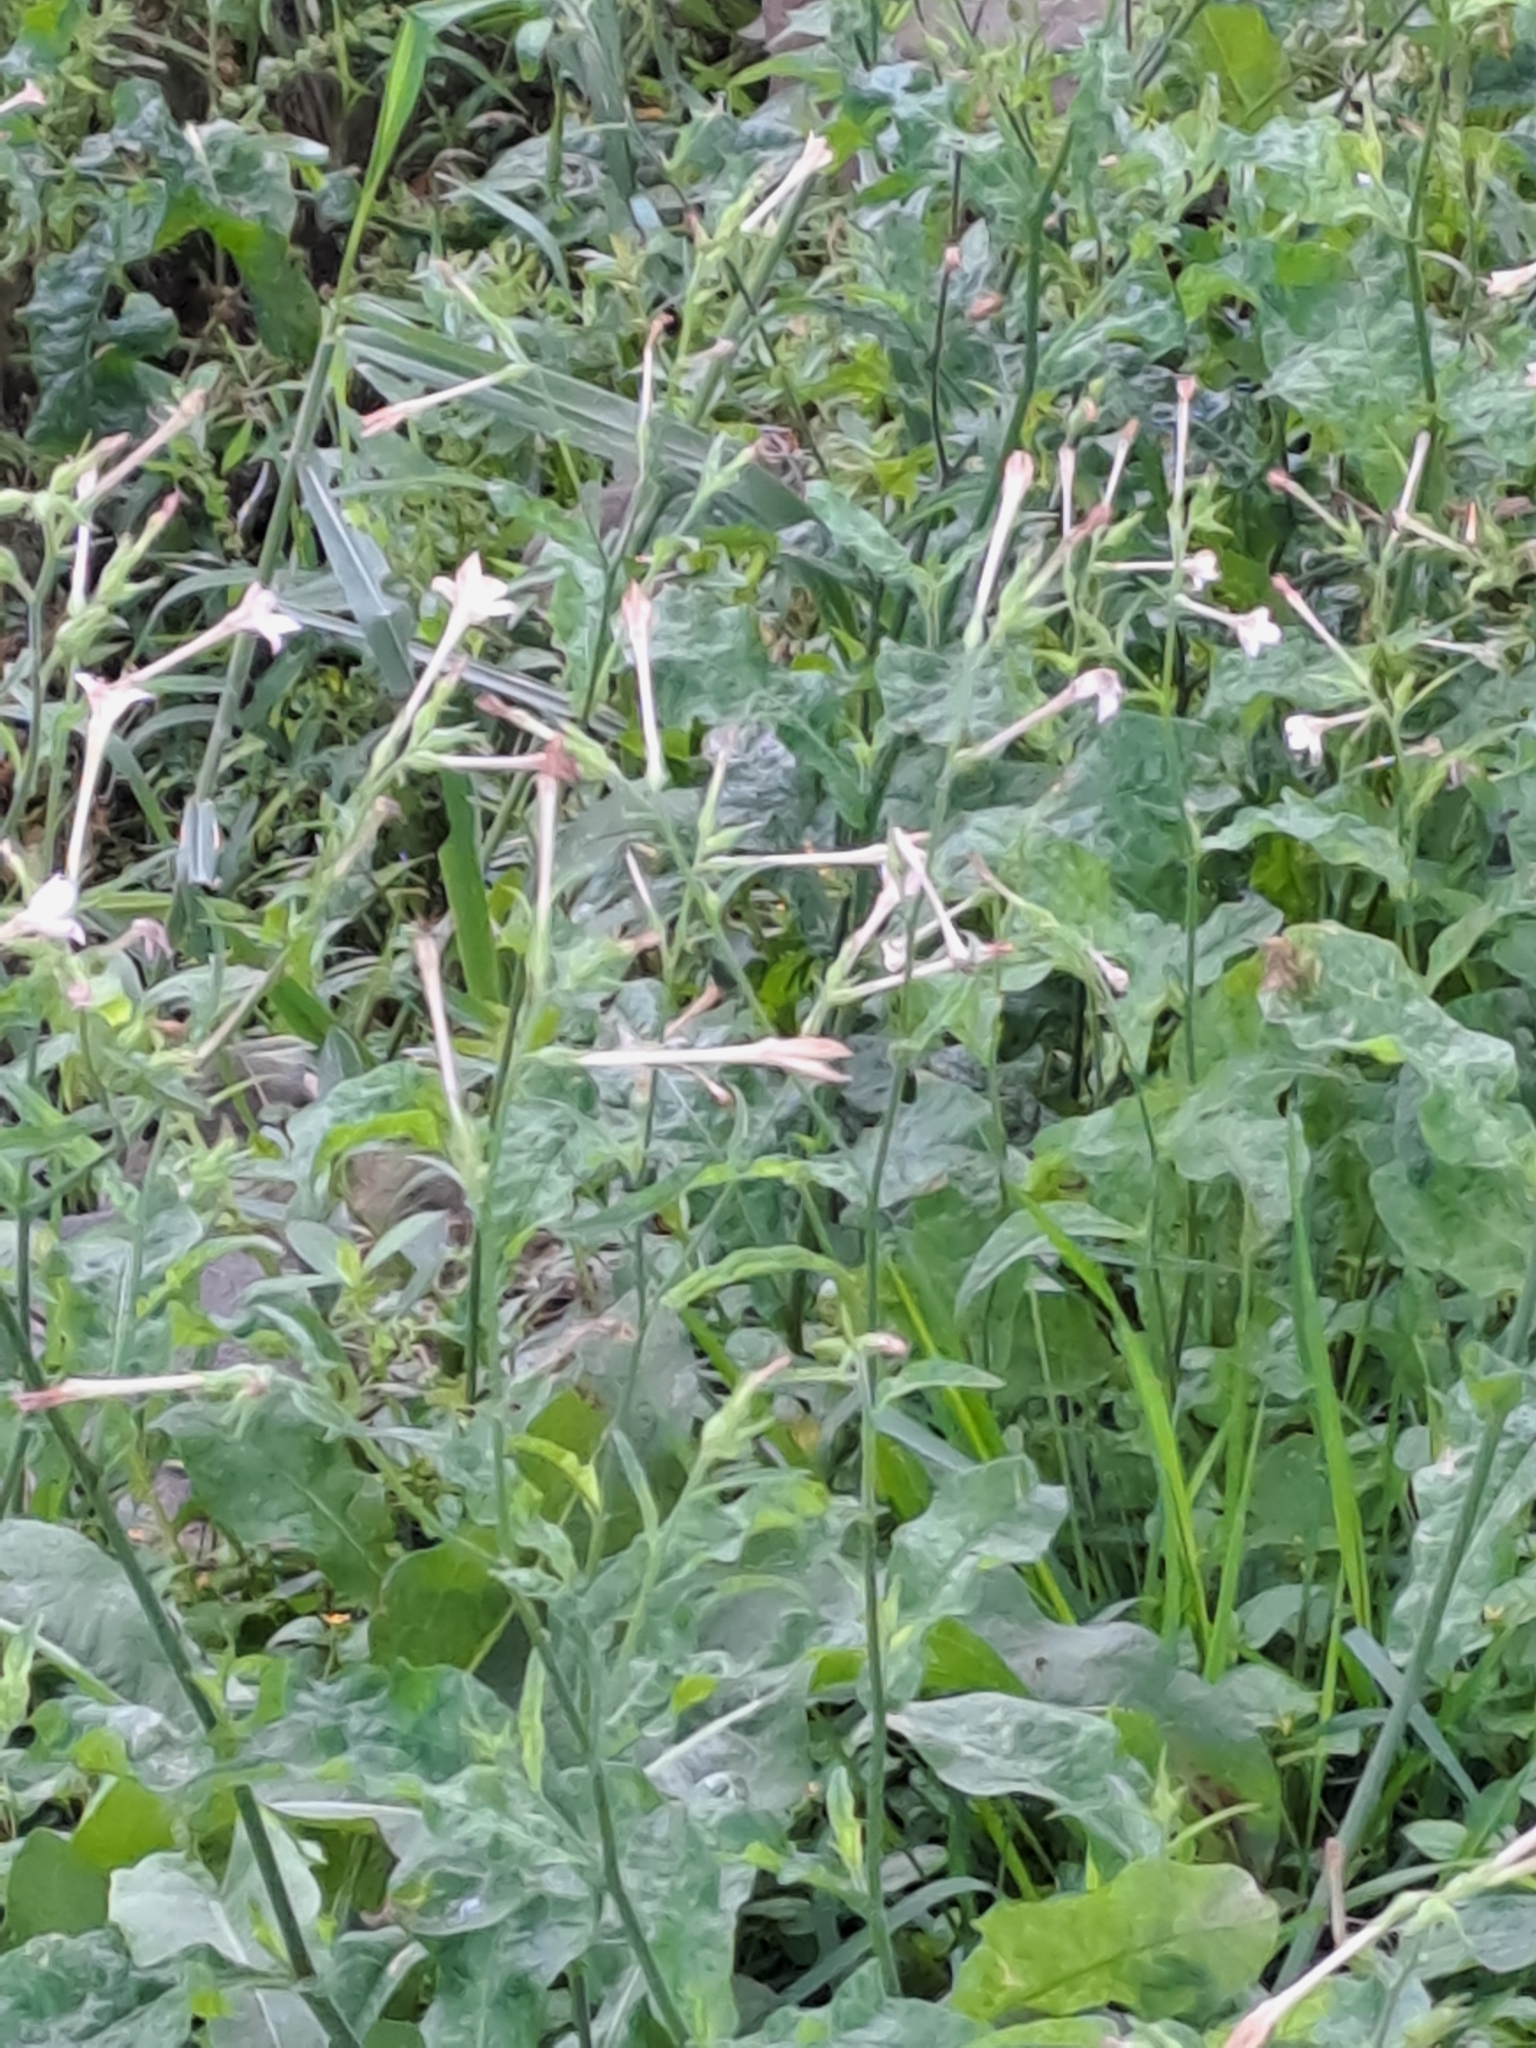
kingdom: Plantae
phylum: Tracheophyta
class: Magnoliopsida
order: Solanales
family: Solanaceae
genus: Nicotiana
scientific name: Nicotiana plumbaginifolia
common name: Tex-mex tobacco
